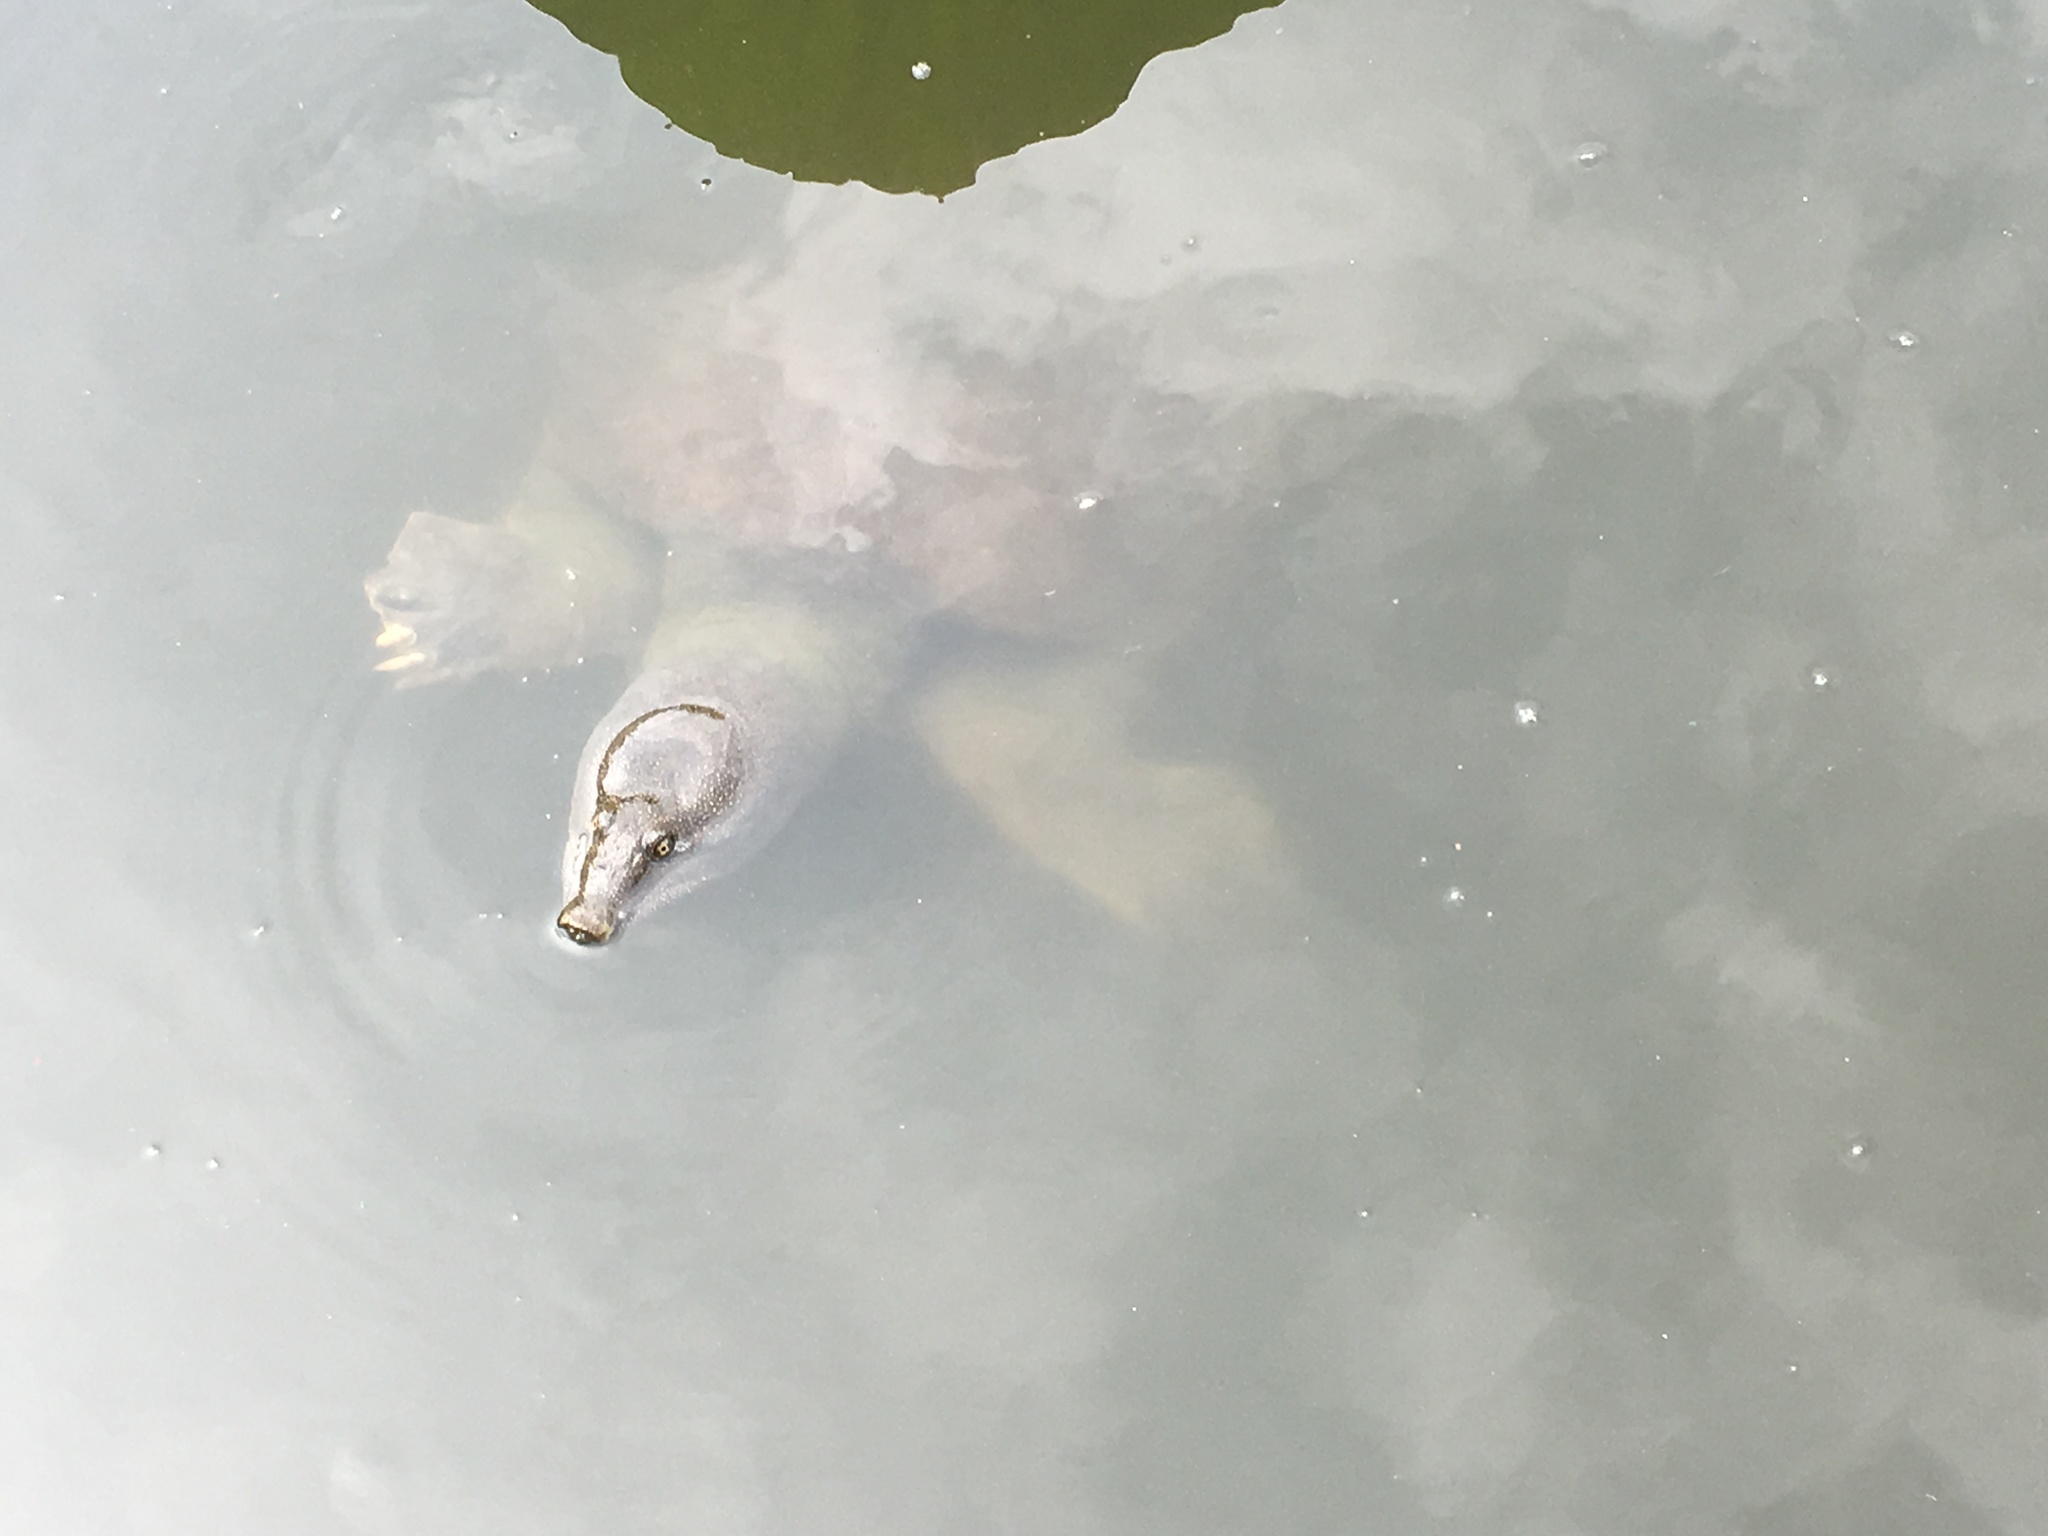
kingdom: Animalia
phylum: Chordata
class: Testudines
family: Trionychidae
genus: Pelodiscus
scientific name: Pelodiscus sinensis
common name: Chinese softshell turtle
